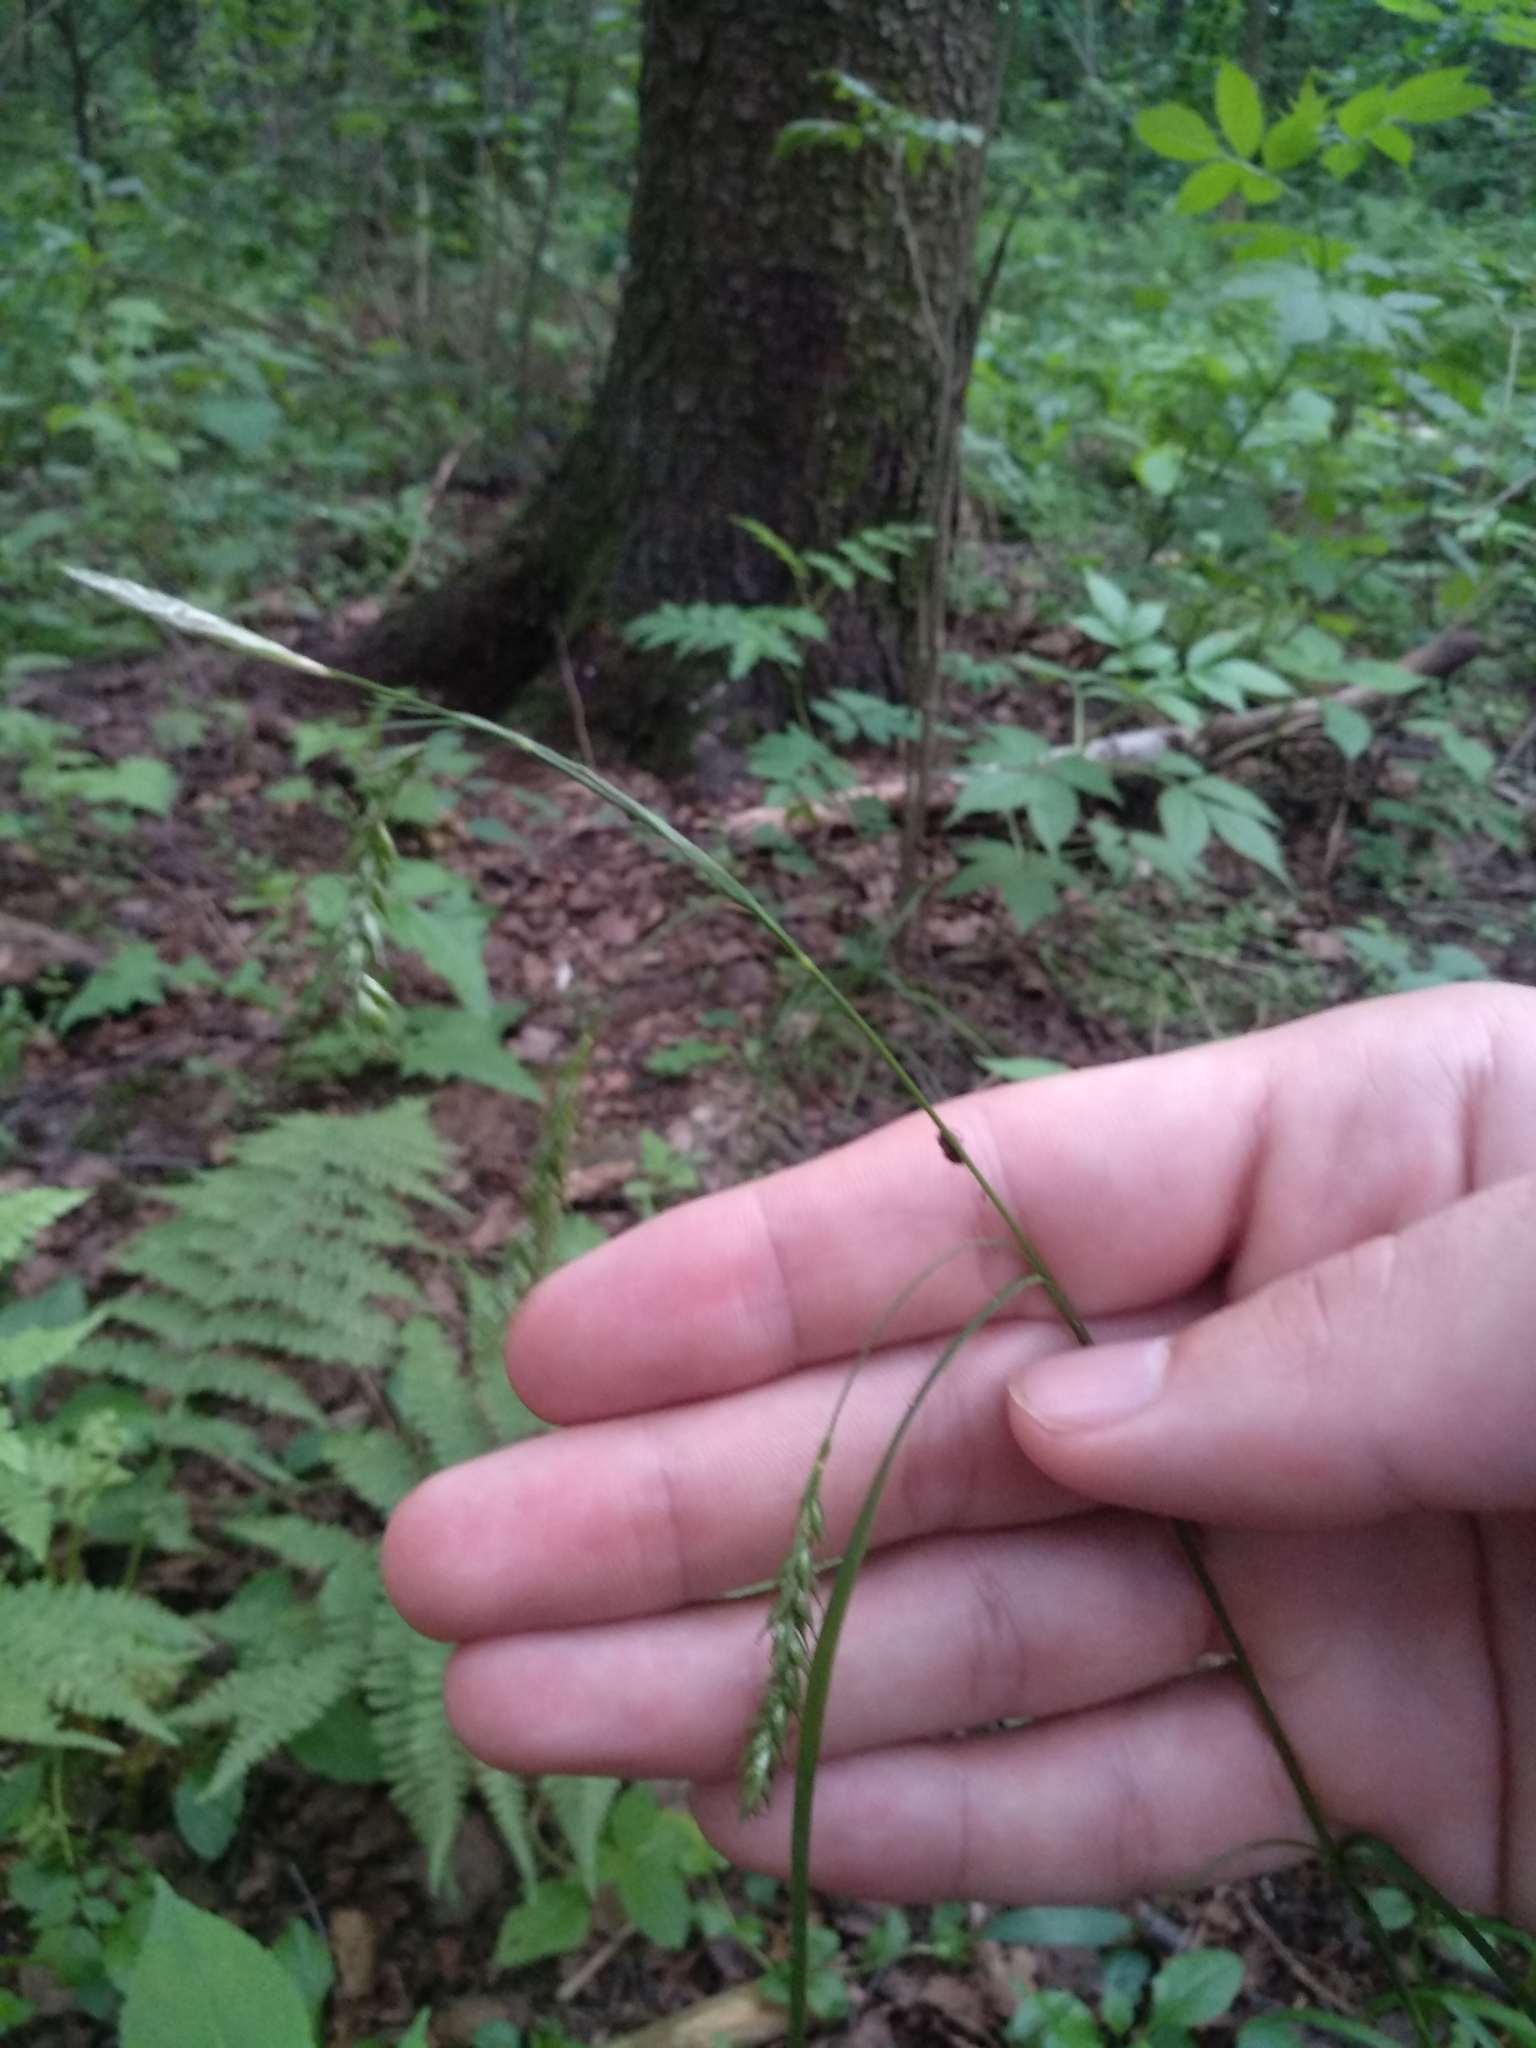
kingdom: Plantae
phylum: Tracheophyta
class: Liliopsida
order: Poales
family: Cyperaceae
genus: Carex
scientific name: Carex sylvatica
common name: Wood-sedge
